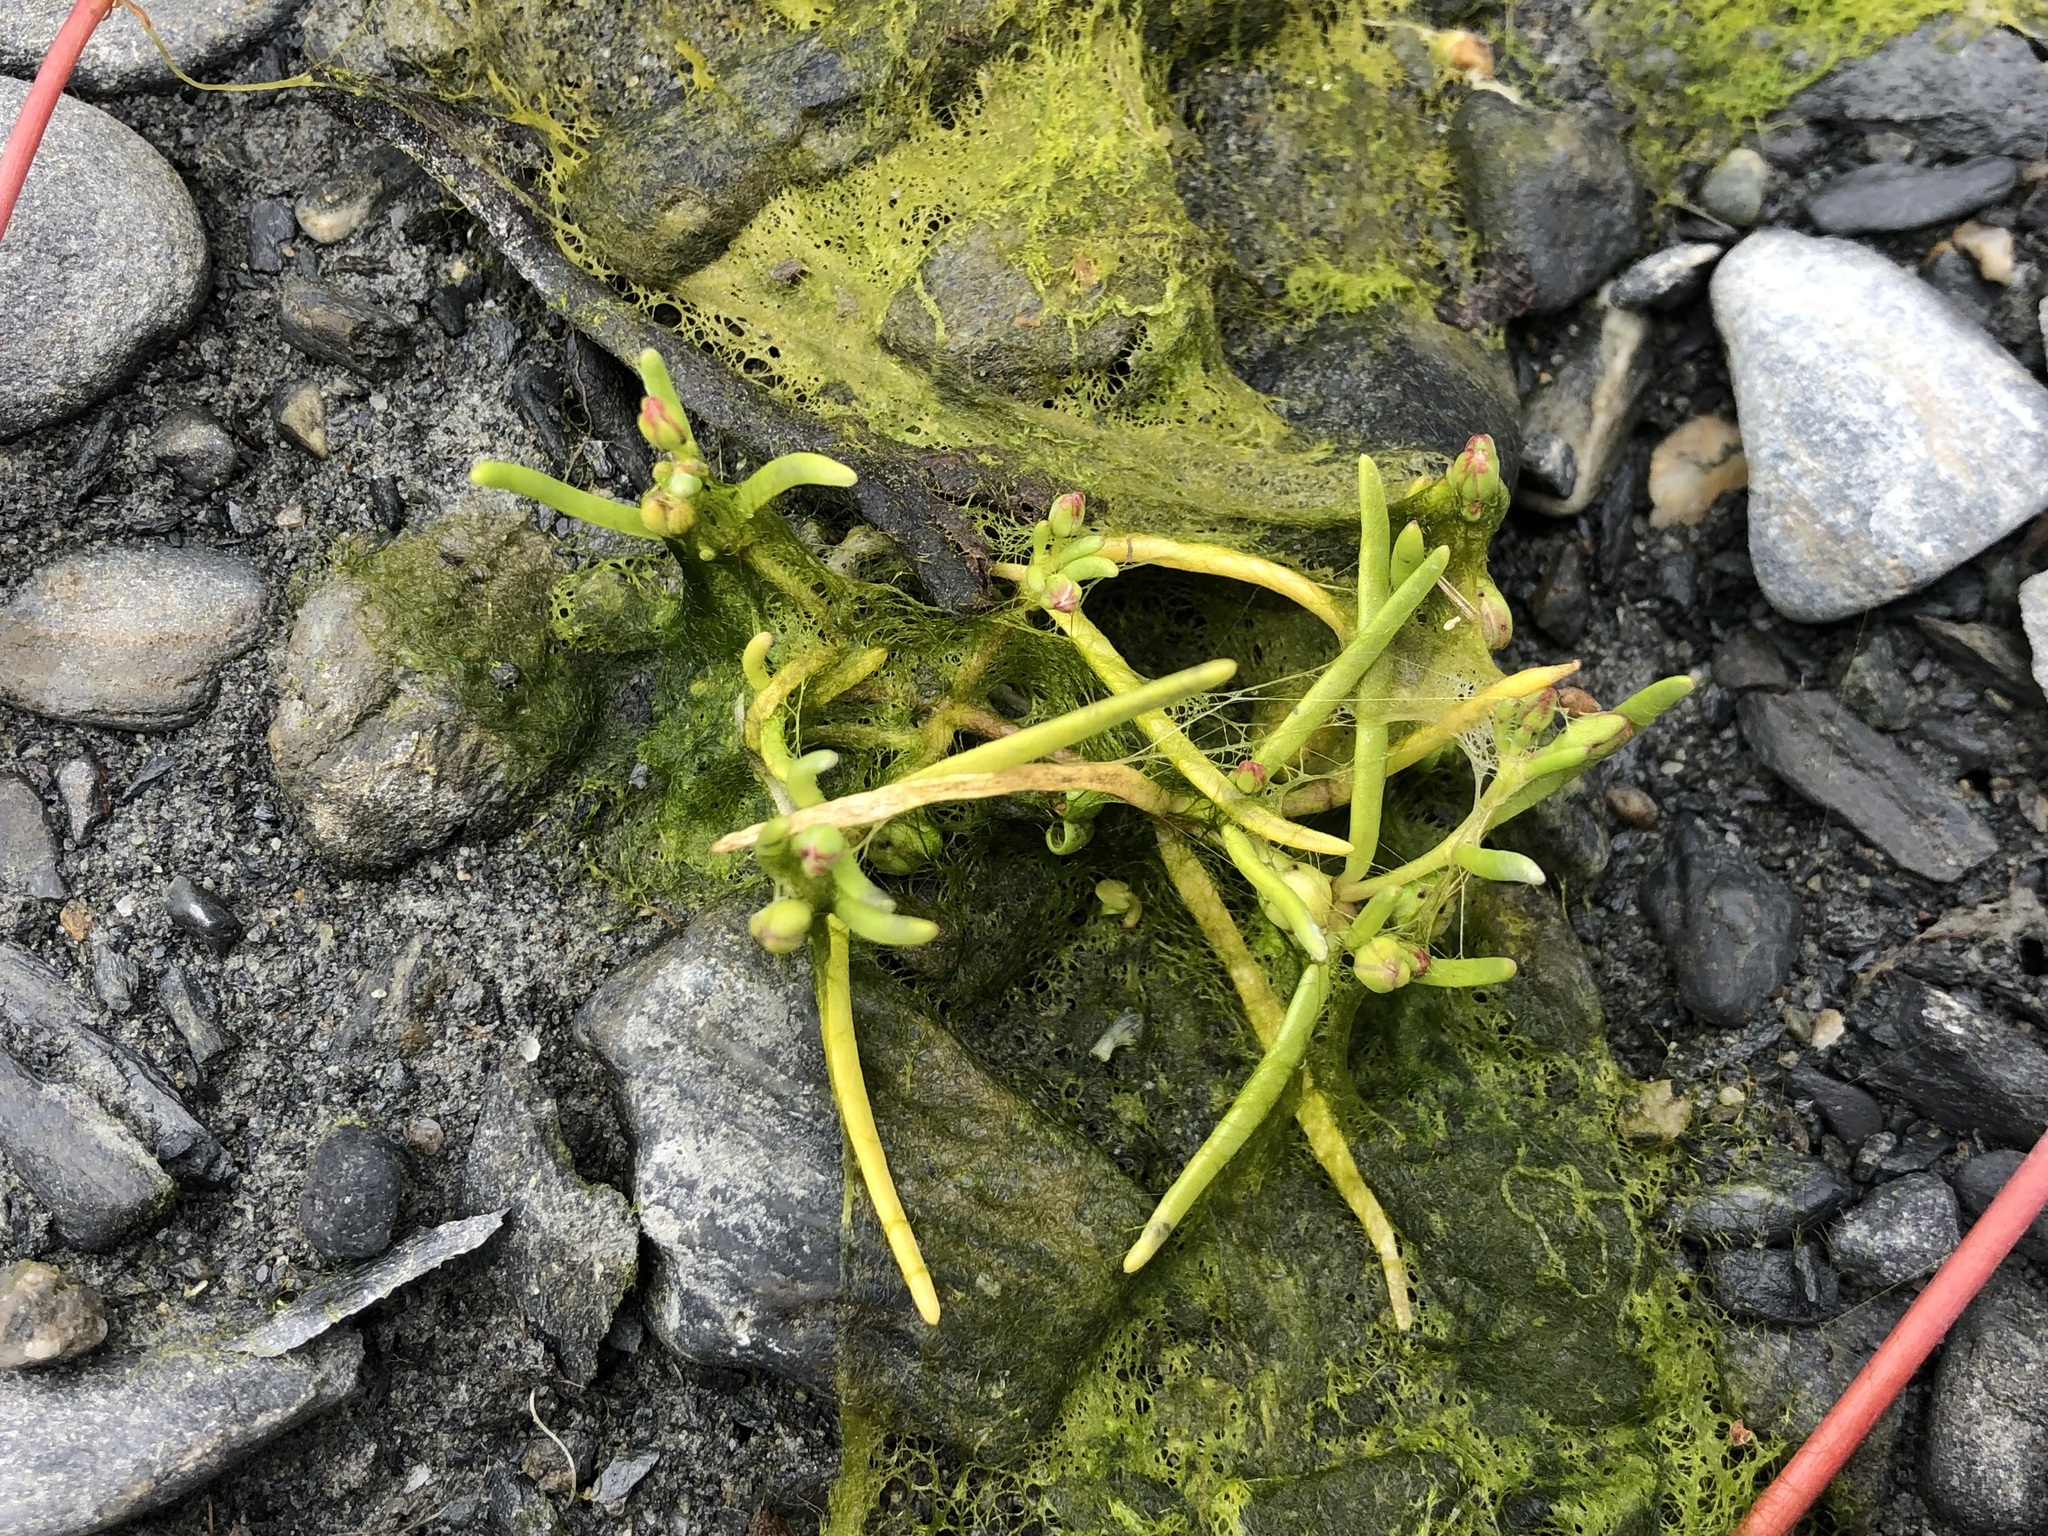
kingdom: Plantae
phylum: Tracheophyta
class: Magnoliopsida
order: Caryophyllales
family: Caryophyllaceae
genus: Spergularia
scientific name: Spergularia canadensis
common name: Canada sand-spurrey
